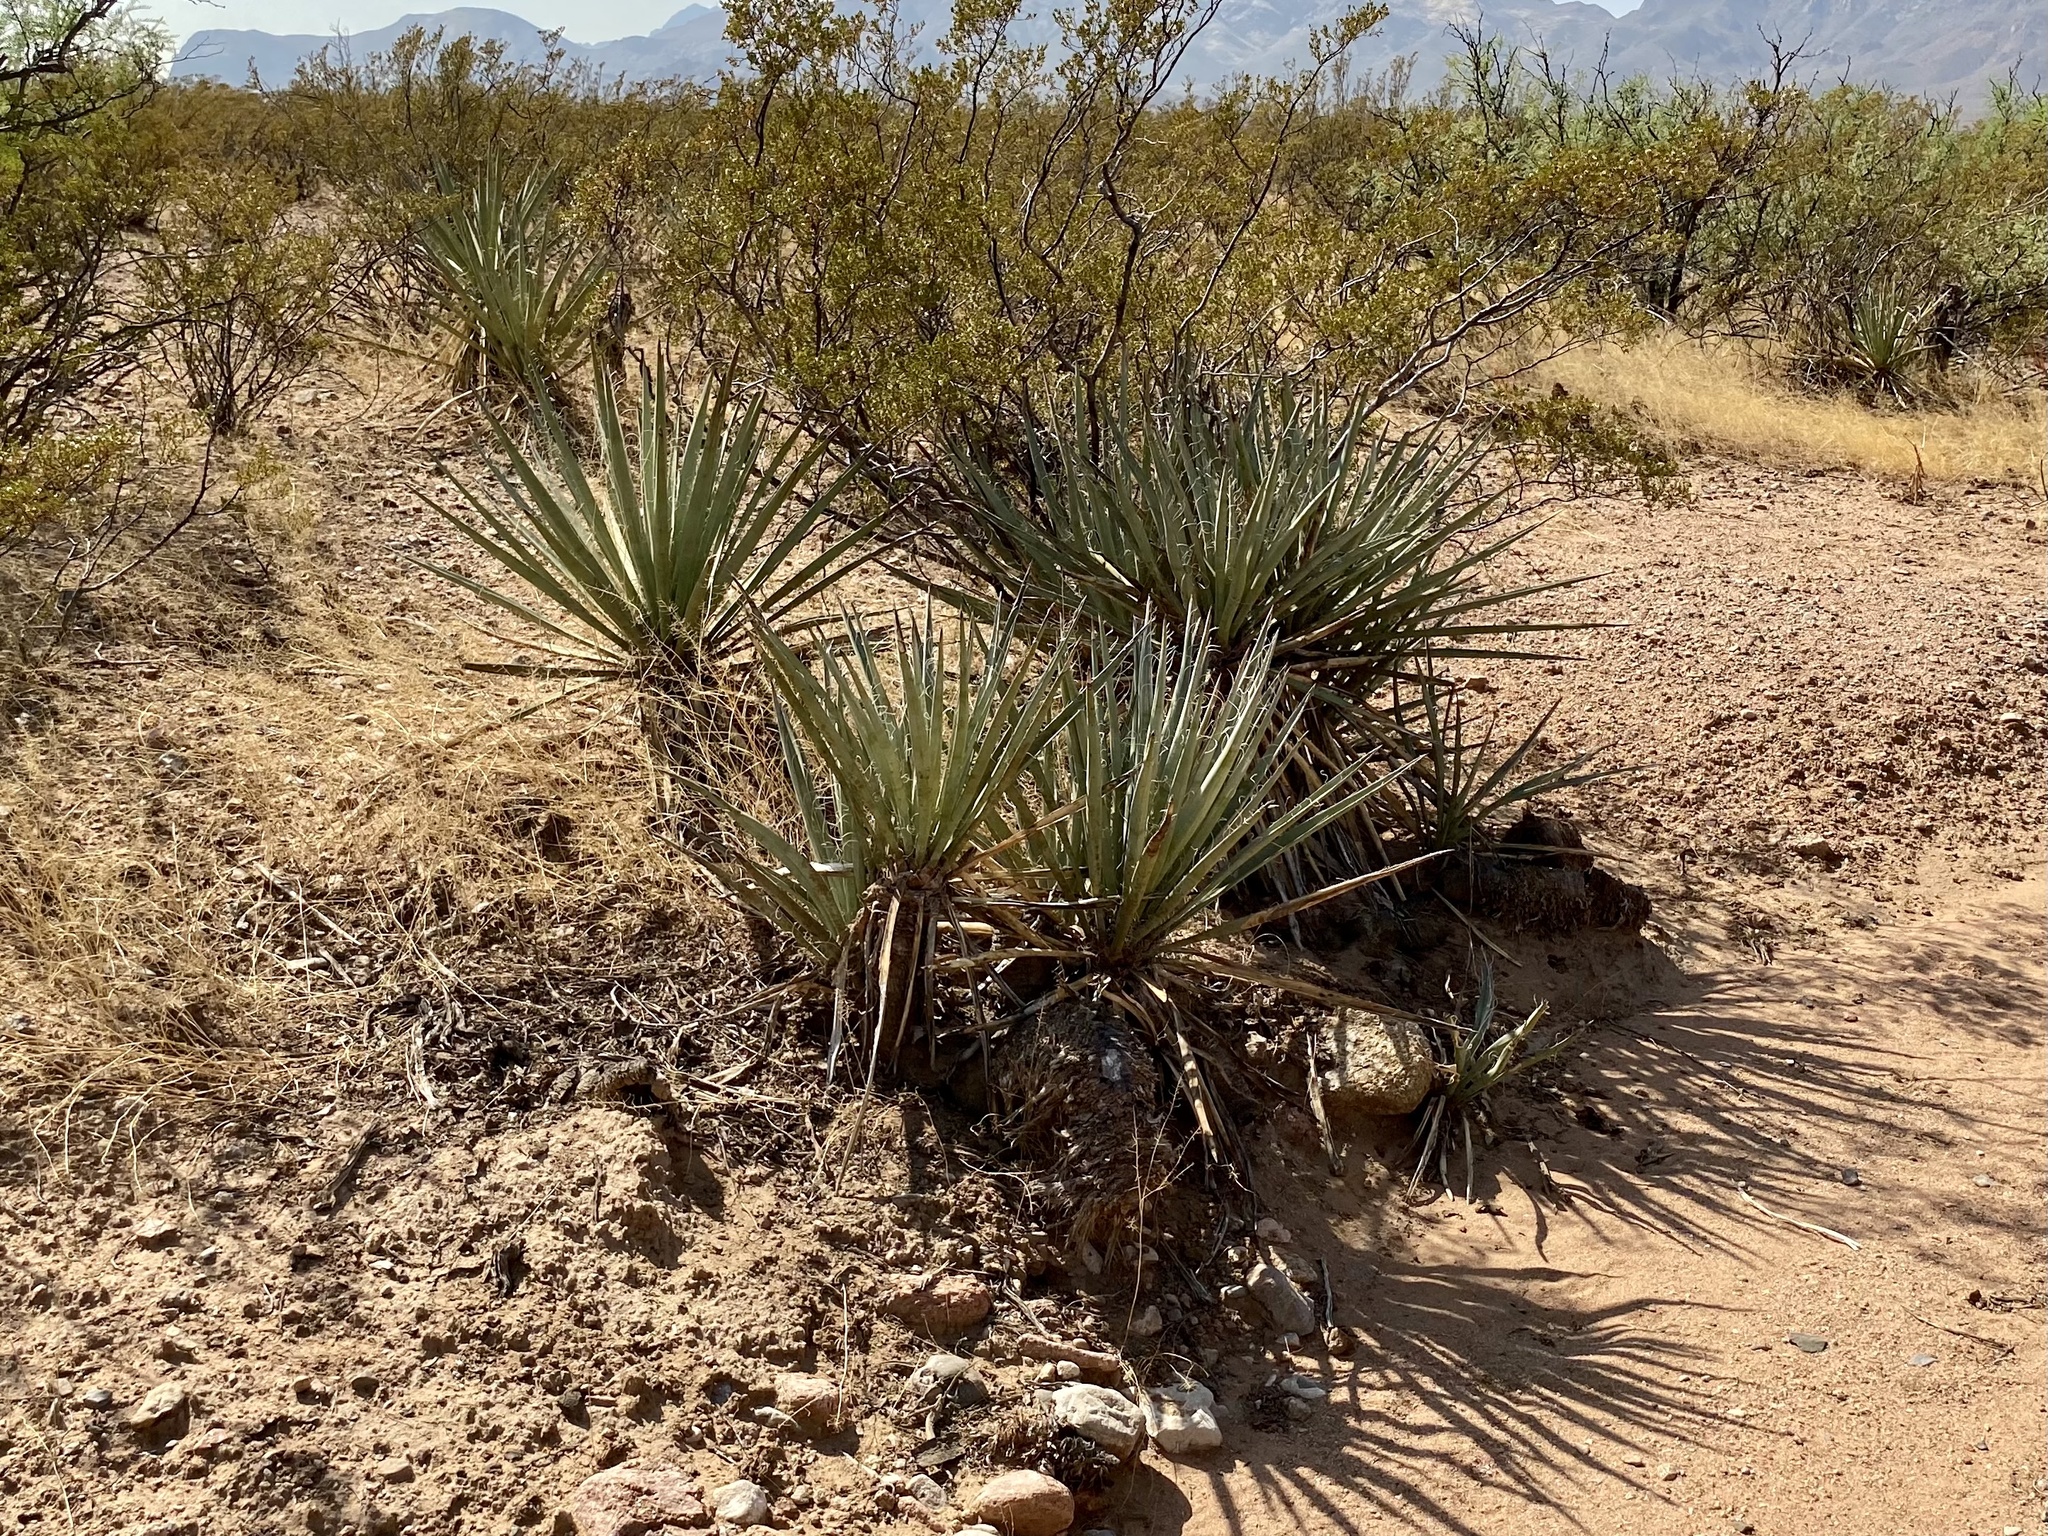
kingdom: Plantae
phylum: Tracheophyta
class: Liliopsida
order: Asparagales
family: Asparagaceae
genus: Yucca
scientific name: Yucca treculiana
